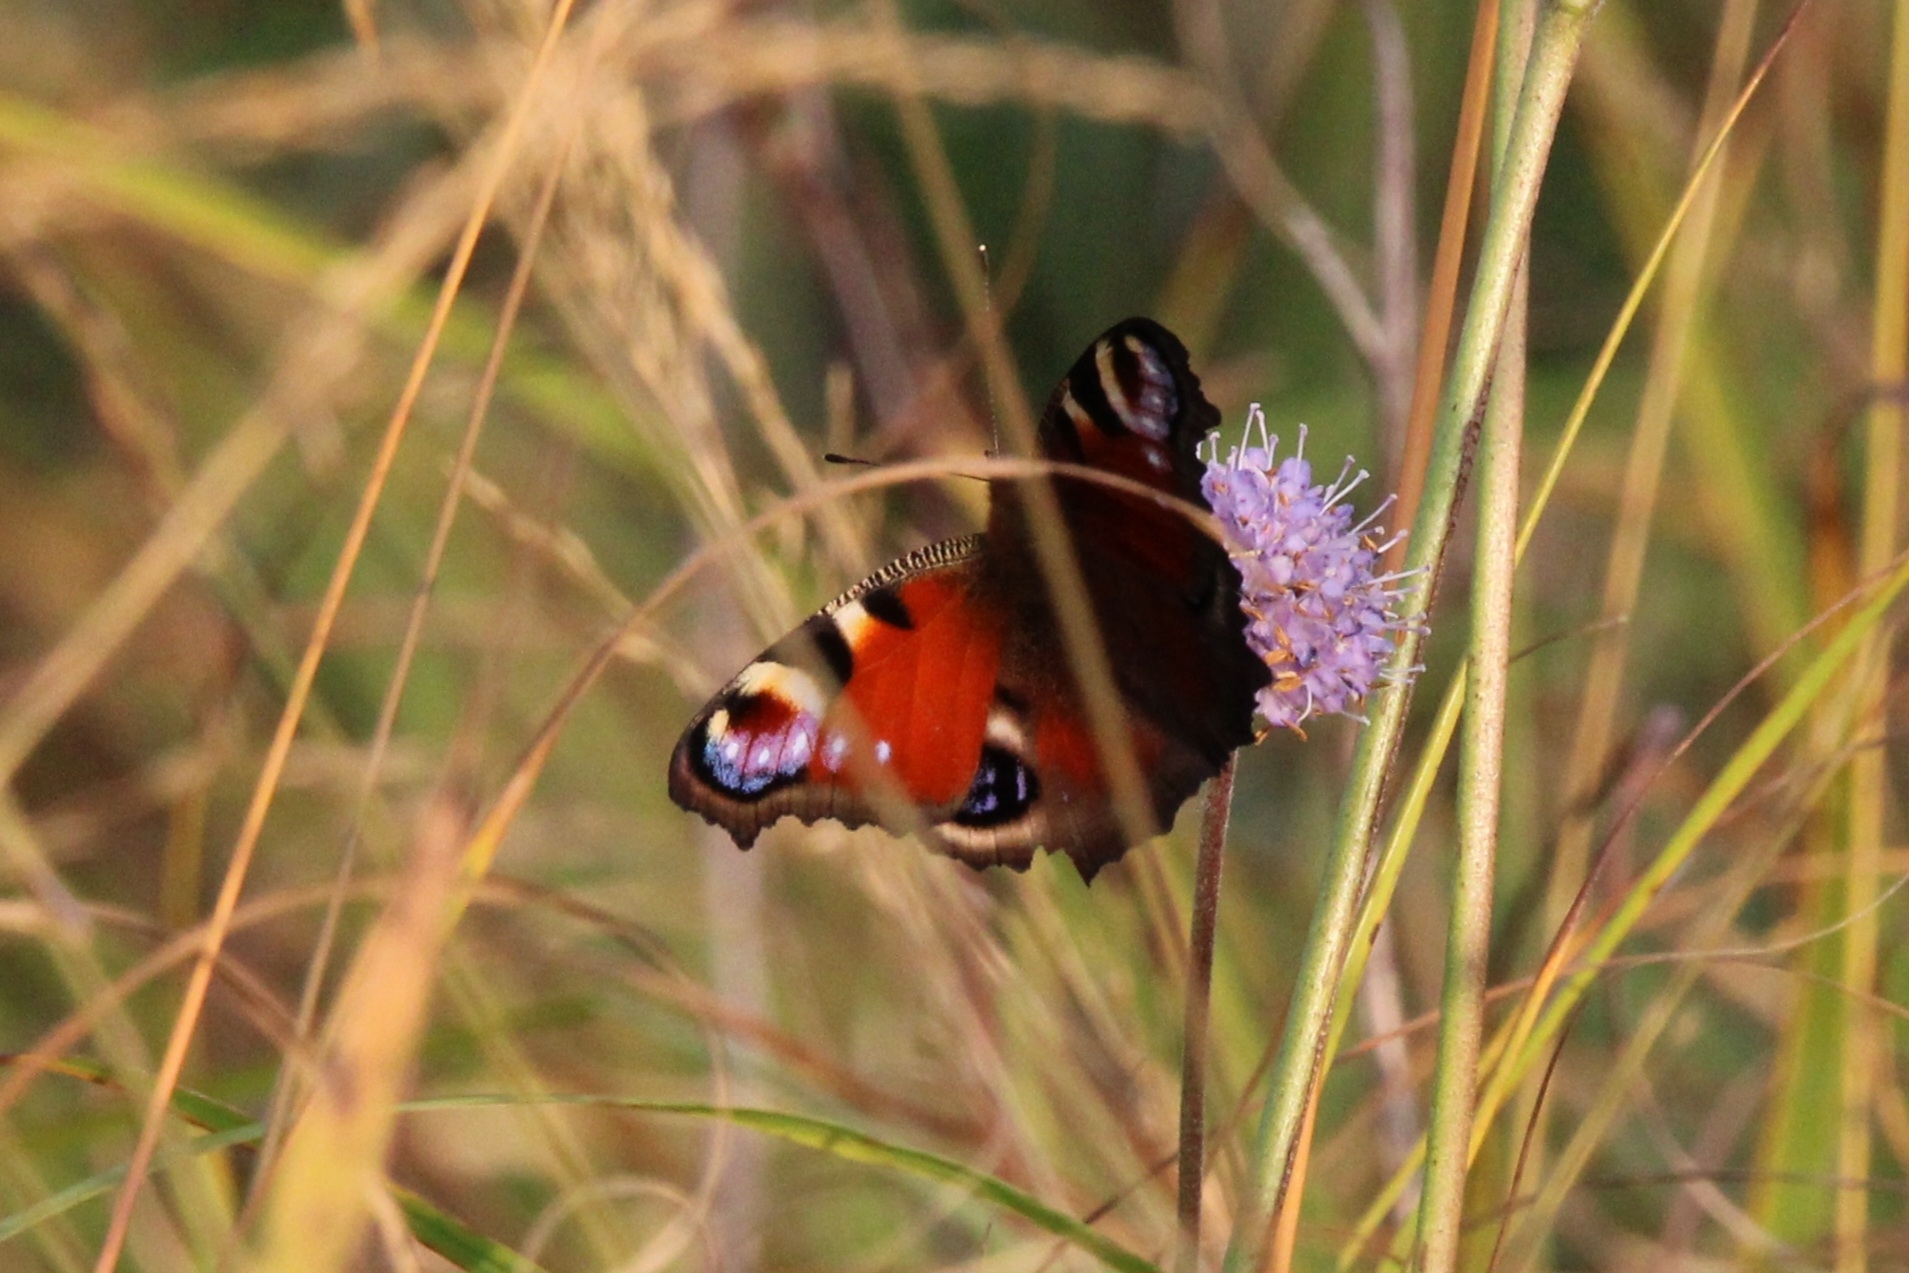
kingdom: Animalia
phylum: Arthropoda
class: Insecta
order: Lepidoptera
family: Nymphalidae
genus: Aglais
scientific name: Aglais io
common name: Peacock
